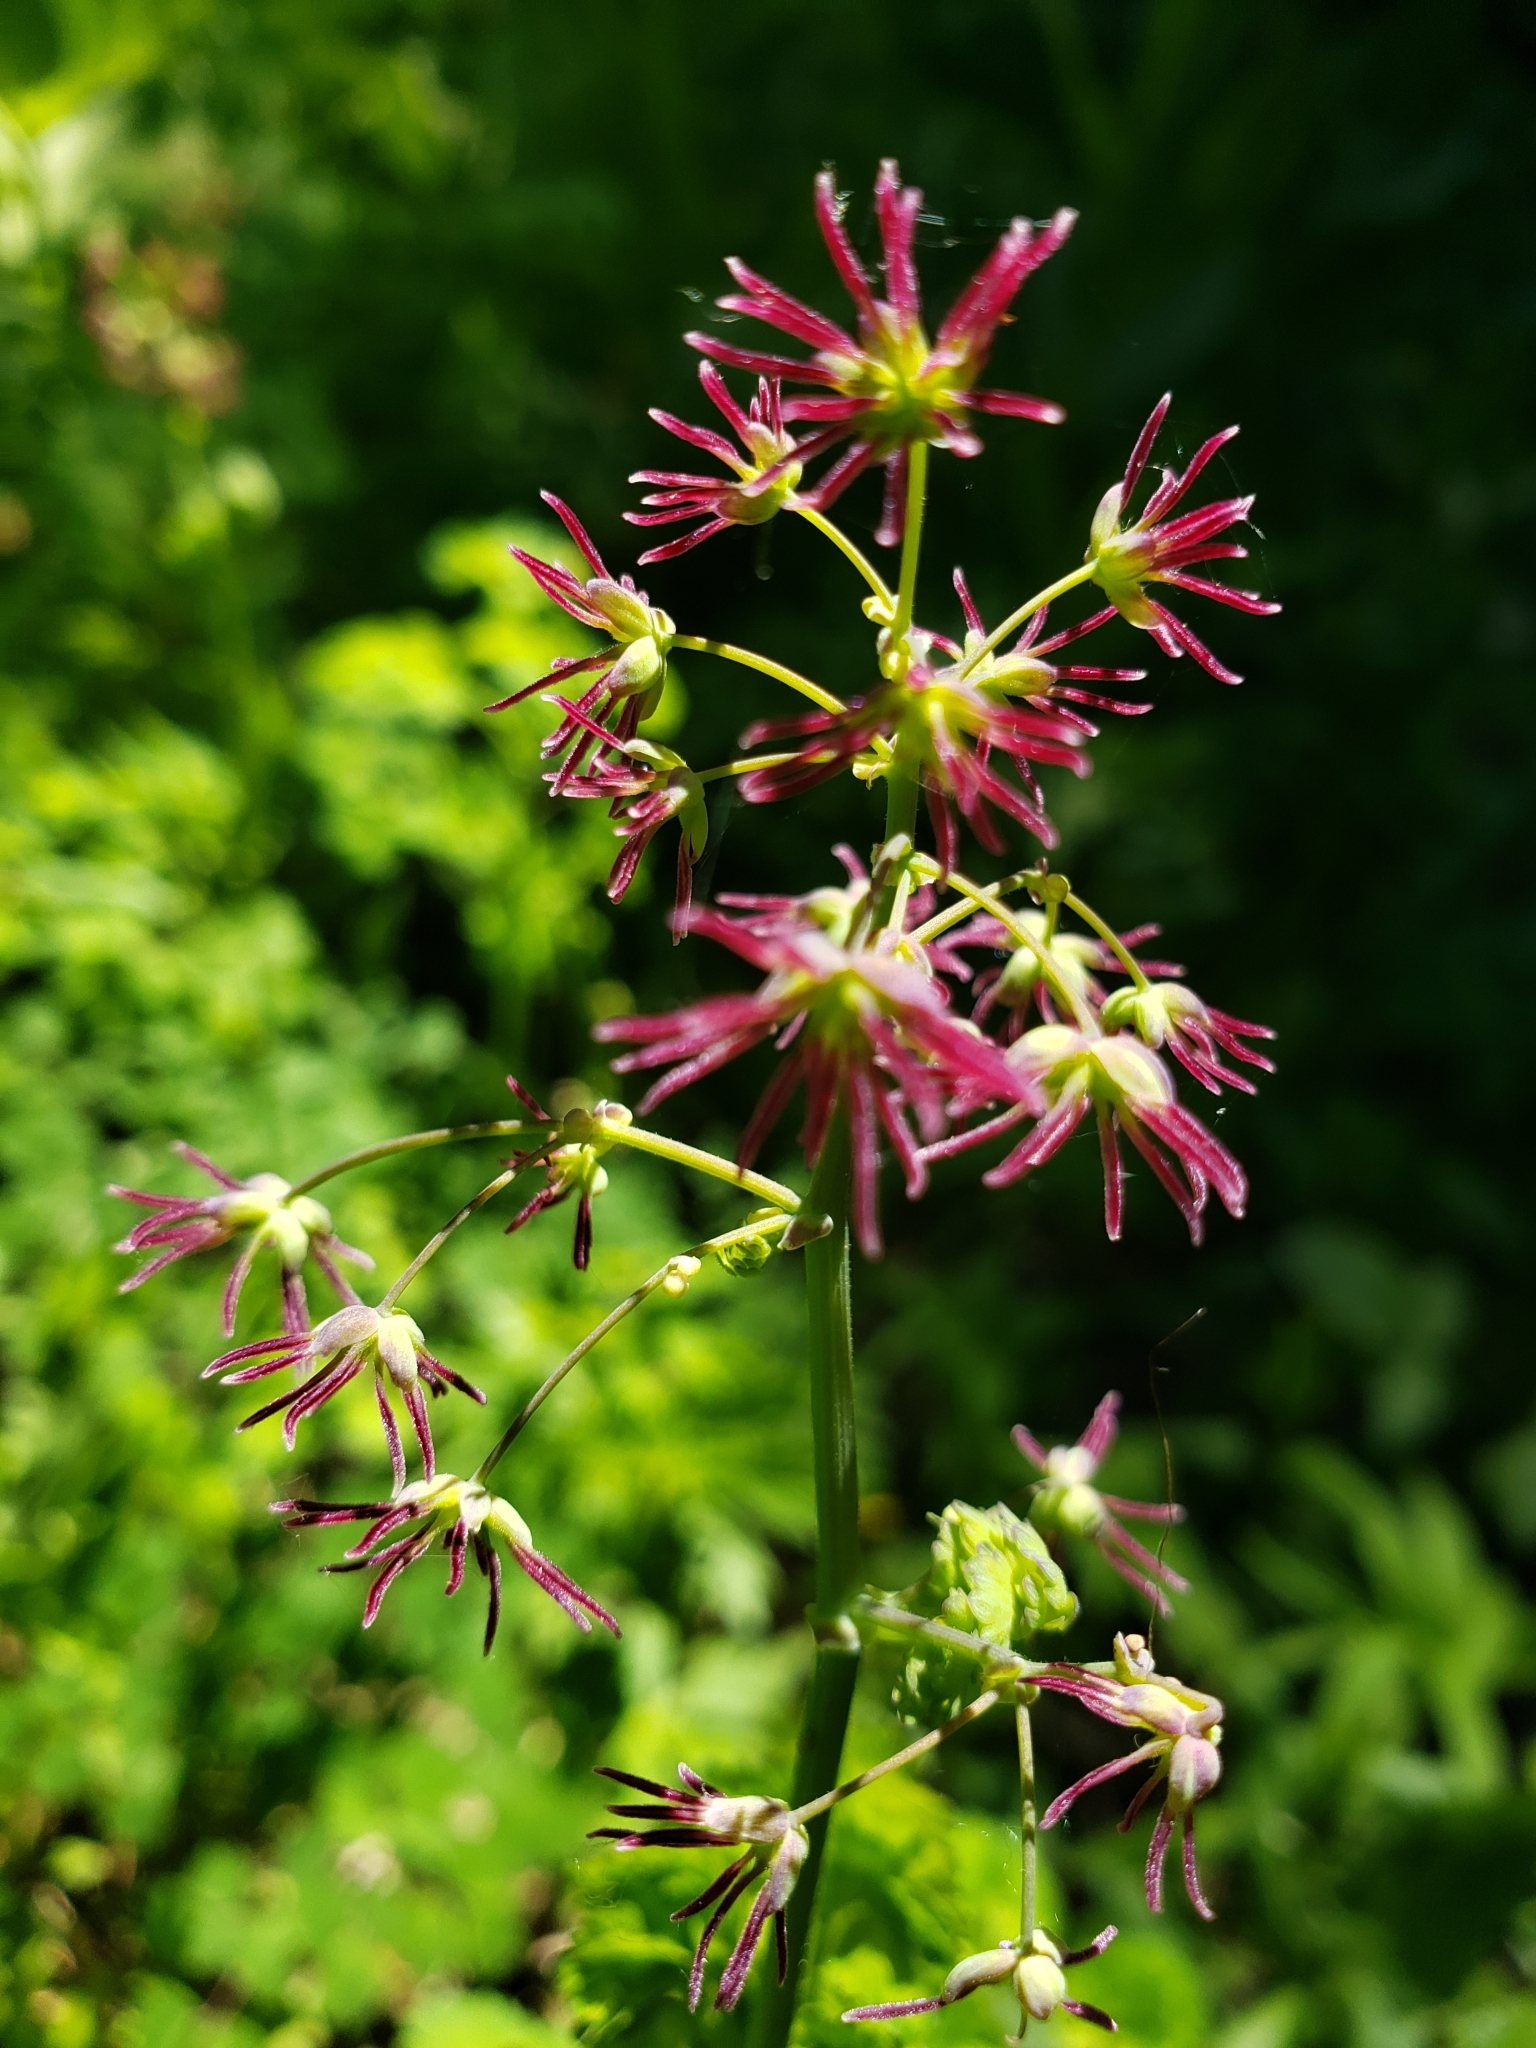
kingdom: Plantae
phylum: Tracheophyta
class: Magnoliopsida
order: Ranunculales
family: Ranunculaceae
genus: Thalictrum
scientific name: Thalictrum occidentale
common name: Western meadow-rue
